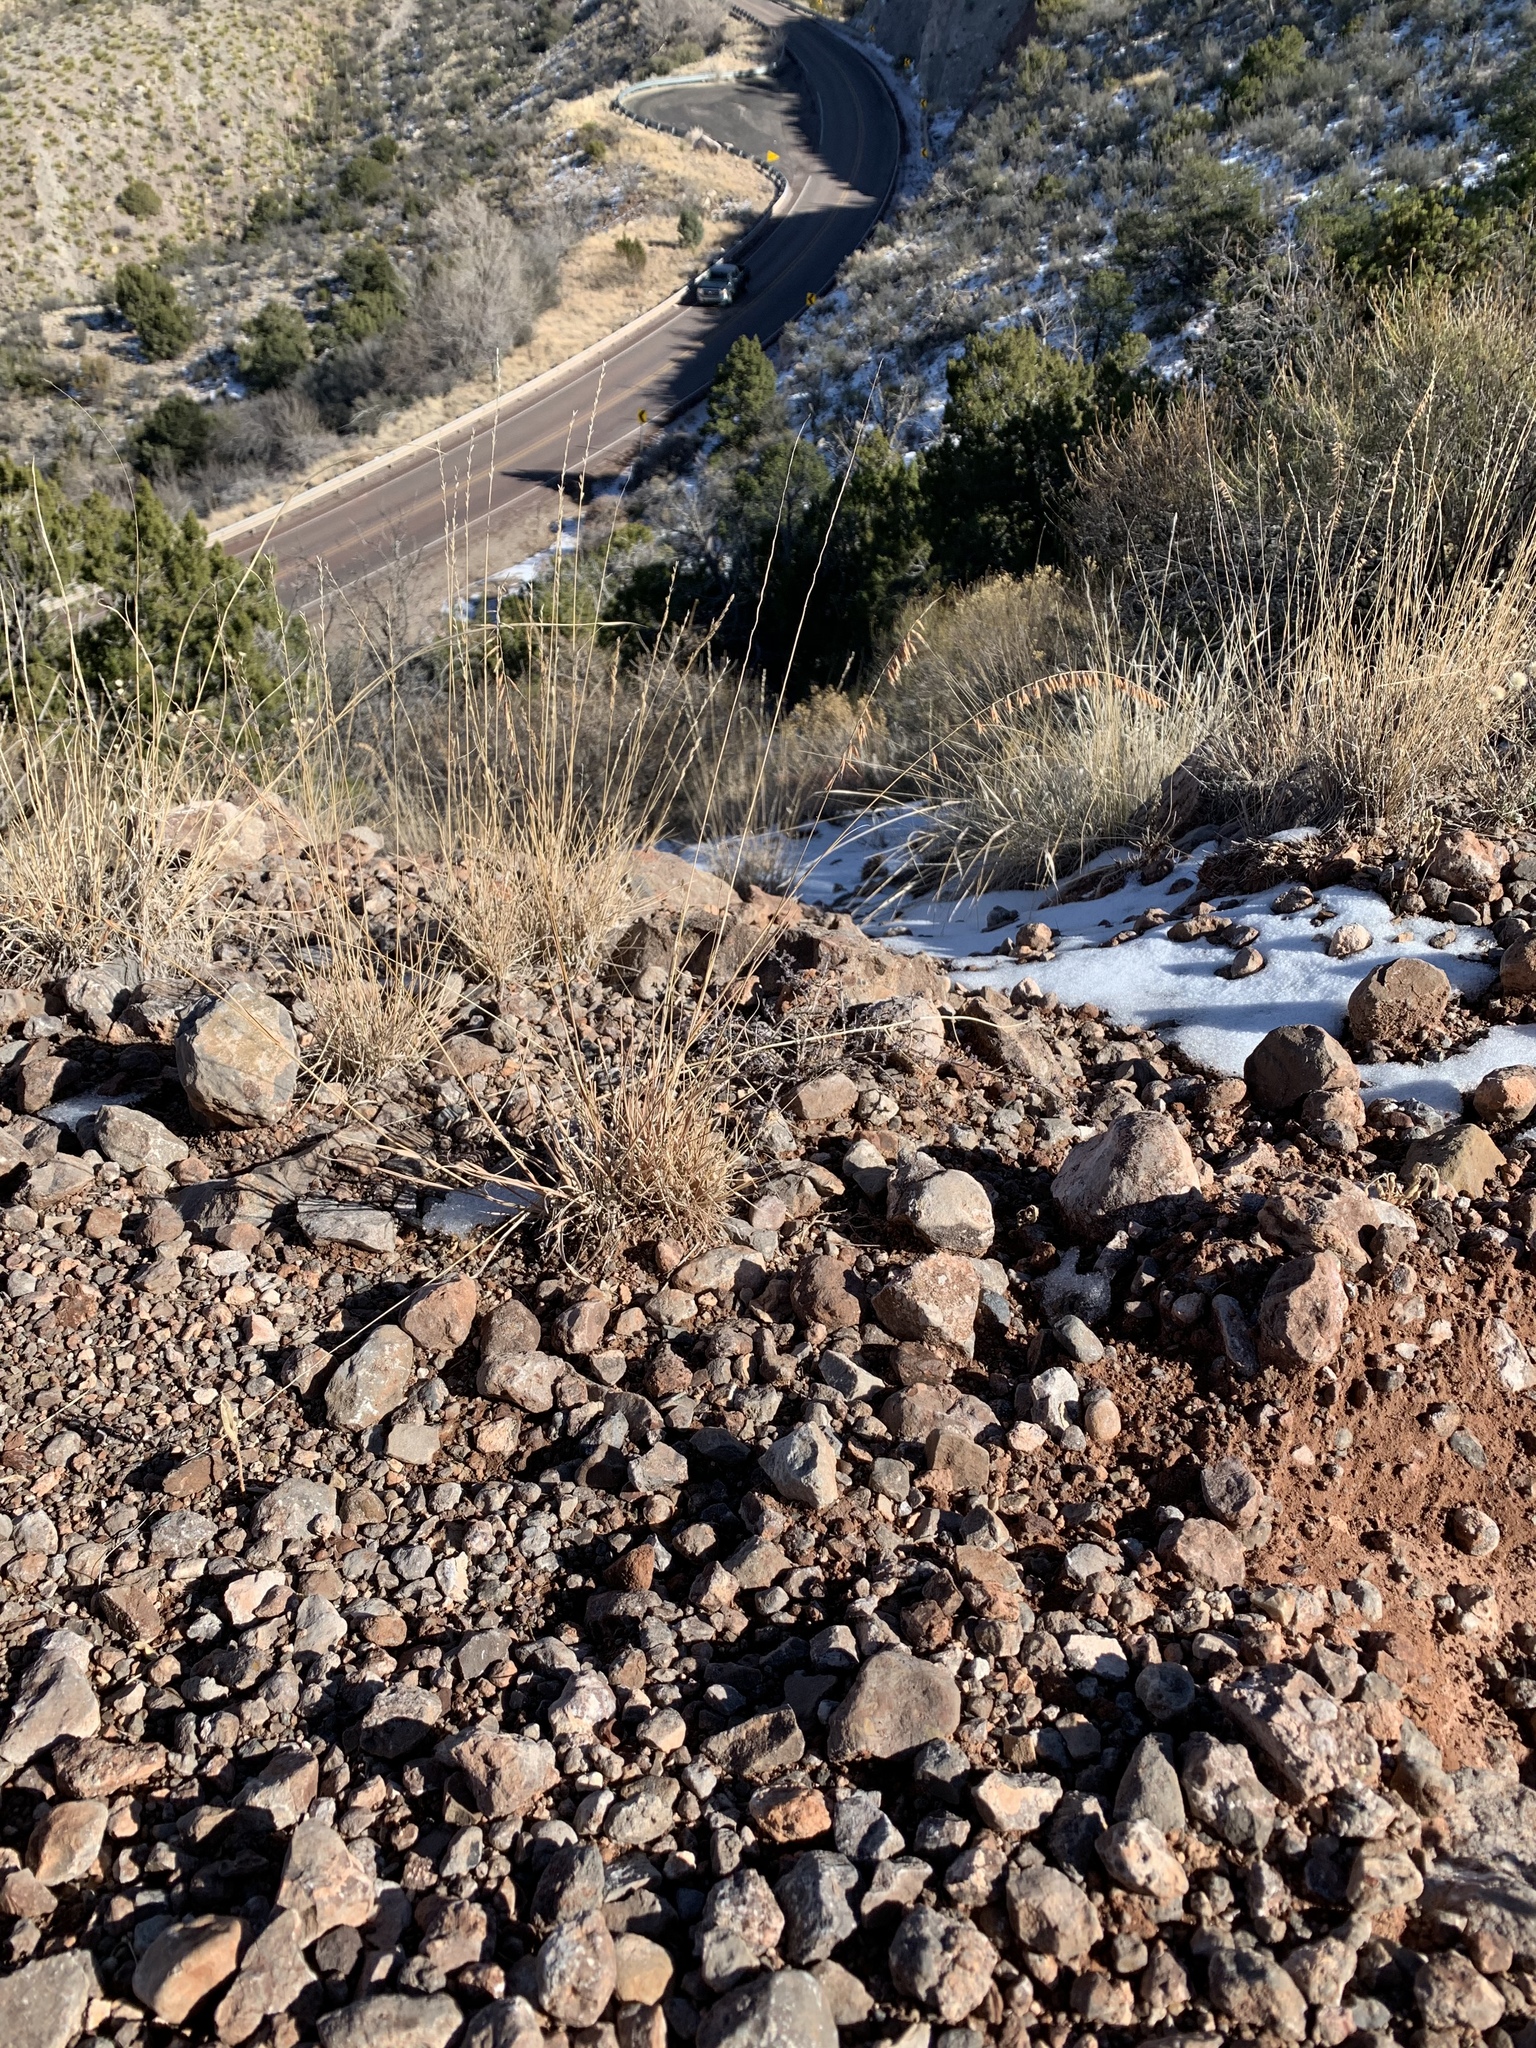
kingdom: Plantae
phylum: Tracheophyta
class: Liliopsida
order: Poales
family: Poaceae
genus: Bouteloua
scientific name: Bouteloua curtipendula
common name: Side-oats grama
